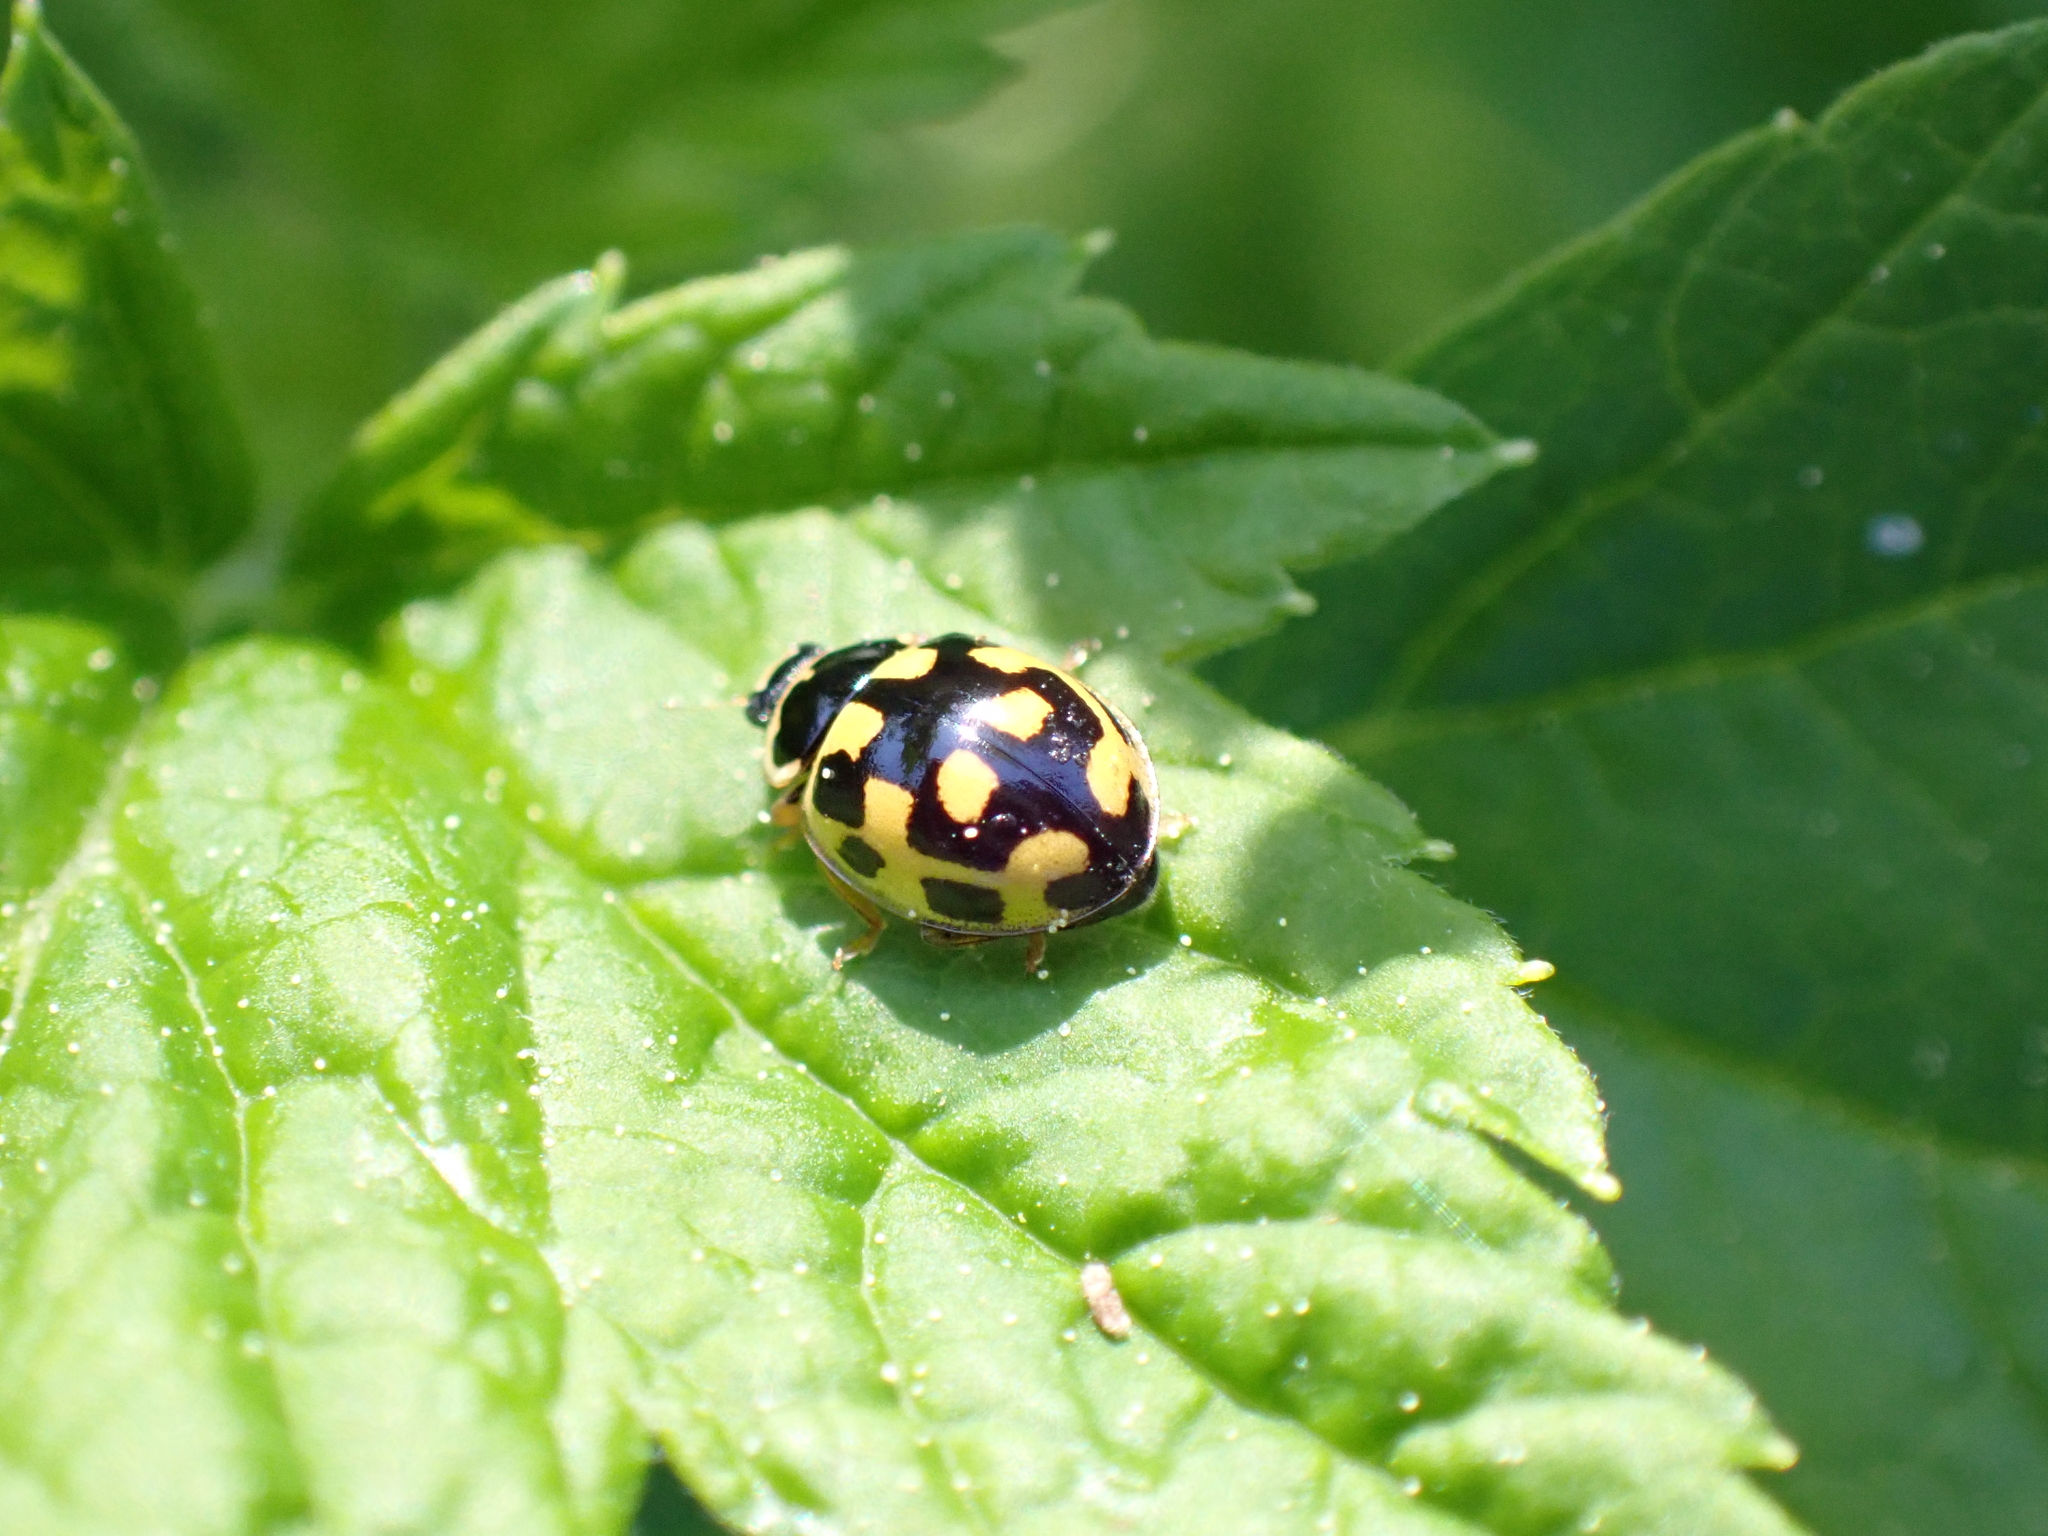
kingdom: Animalia
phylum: Arthropoda
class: Insecta
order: Coleoptera
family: Coccinellidae
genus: Propylaea
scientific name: Propylaea quatuordecimpunctata
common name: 14-spotted ladybird beetle
